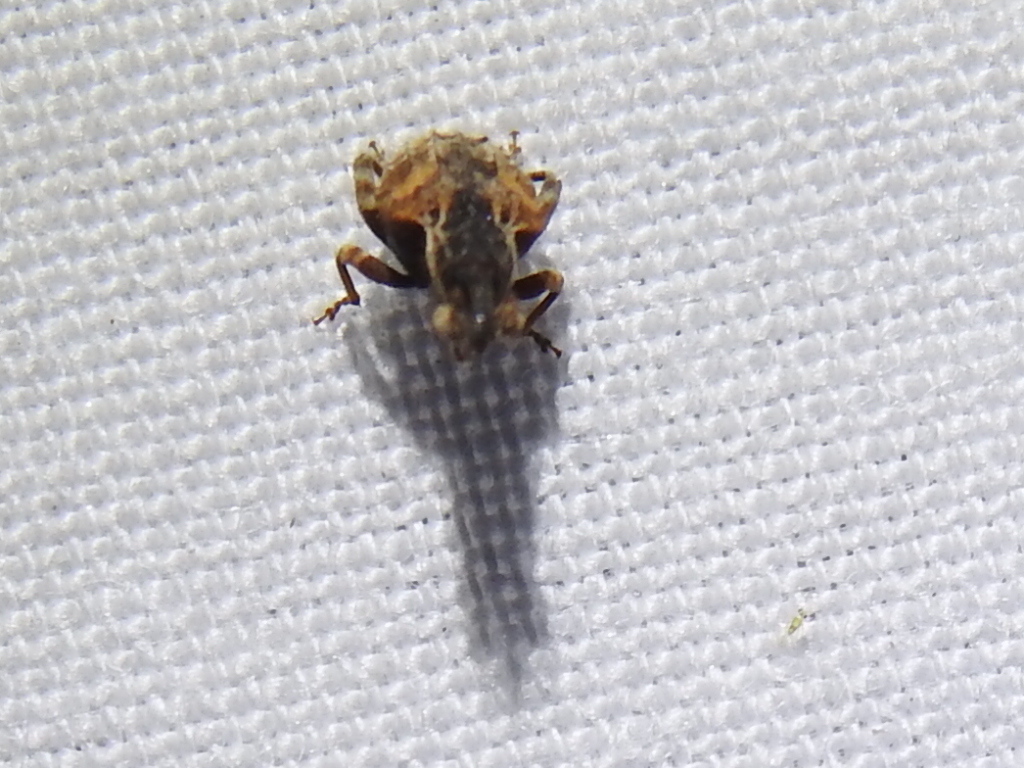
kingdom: Animalia
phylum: Arthropoda
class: Insecta
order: Coleoptera
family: Curculionidae
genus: Conotrachelus
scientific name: Conotrachelus anaglypticus
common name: Cambium curculio
